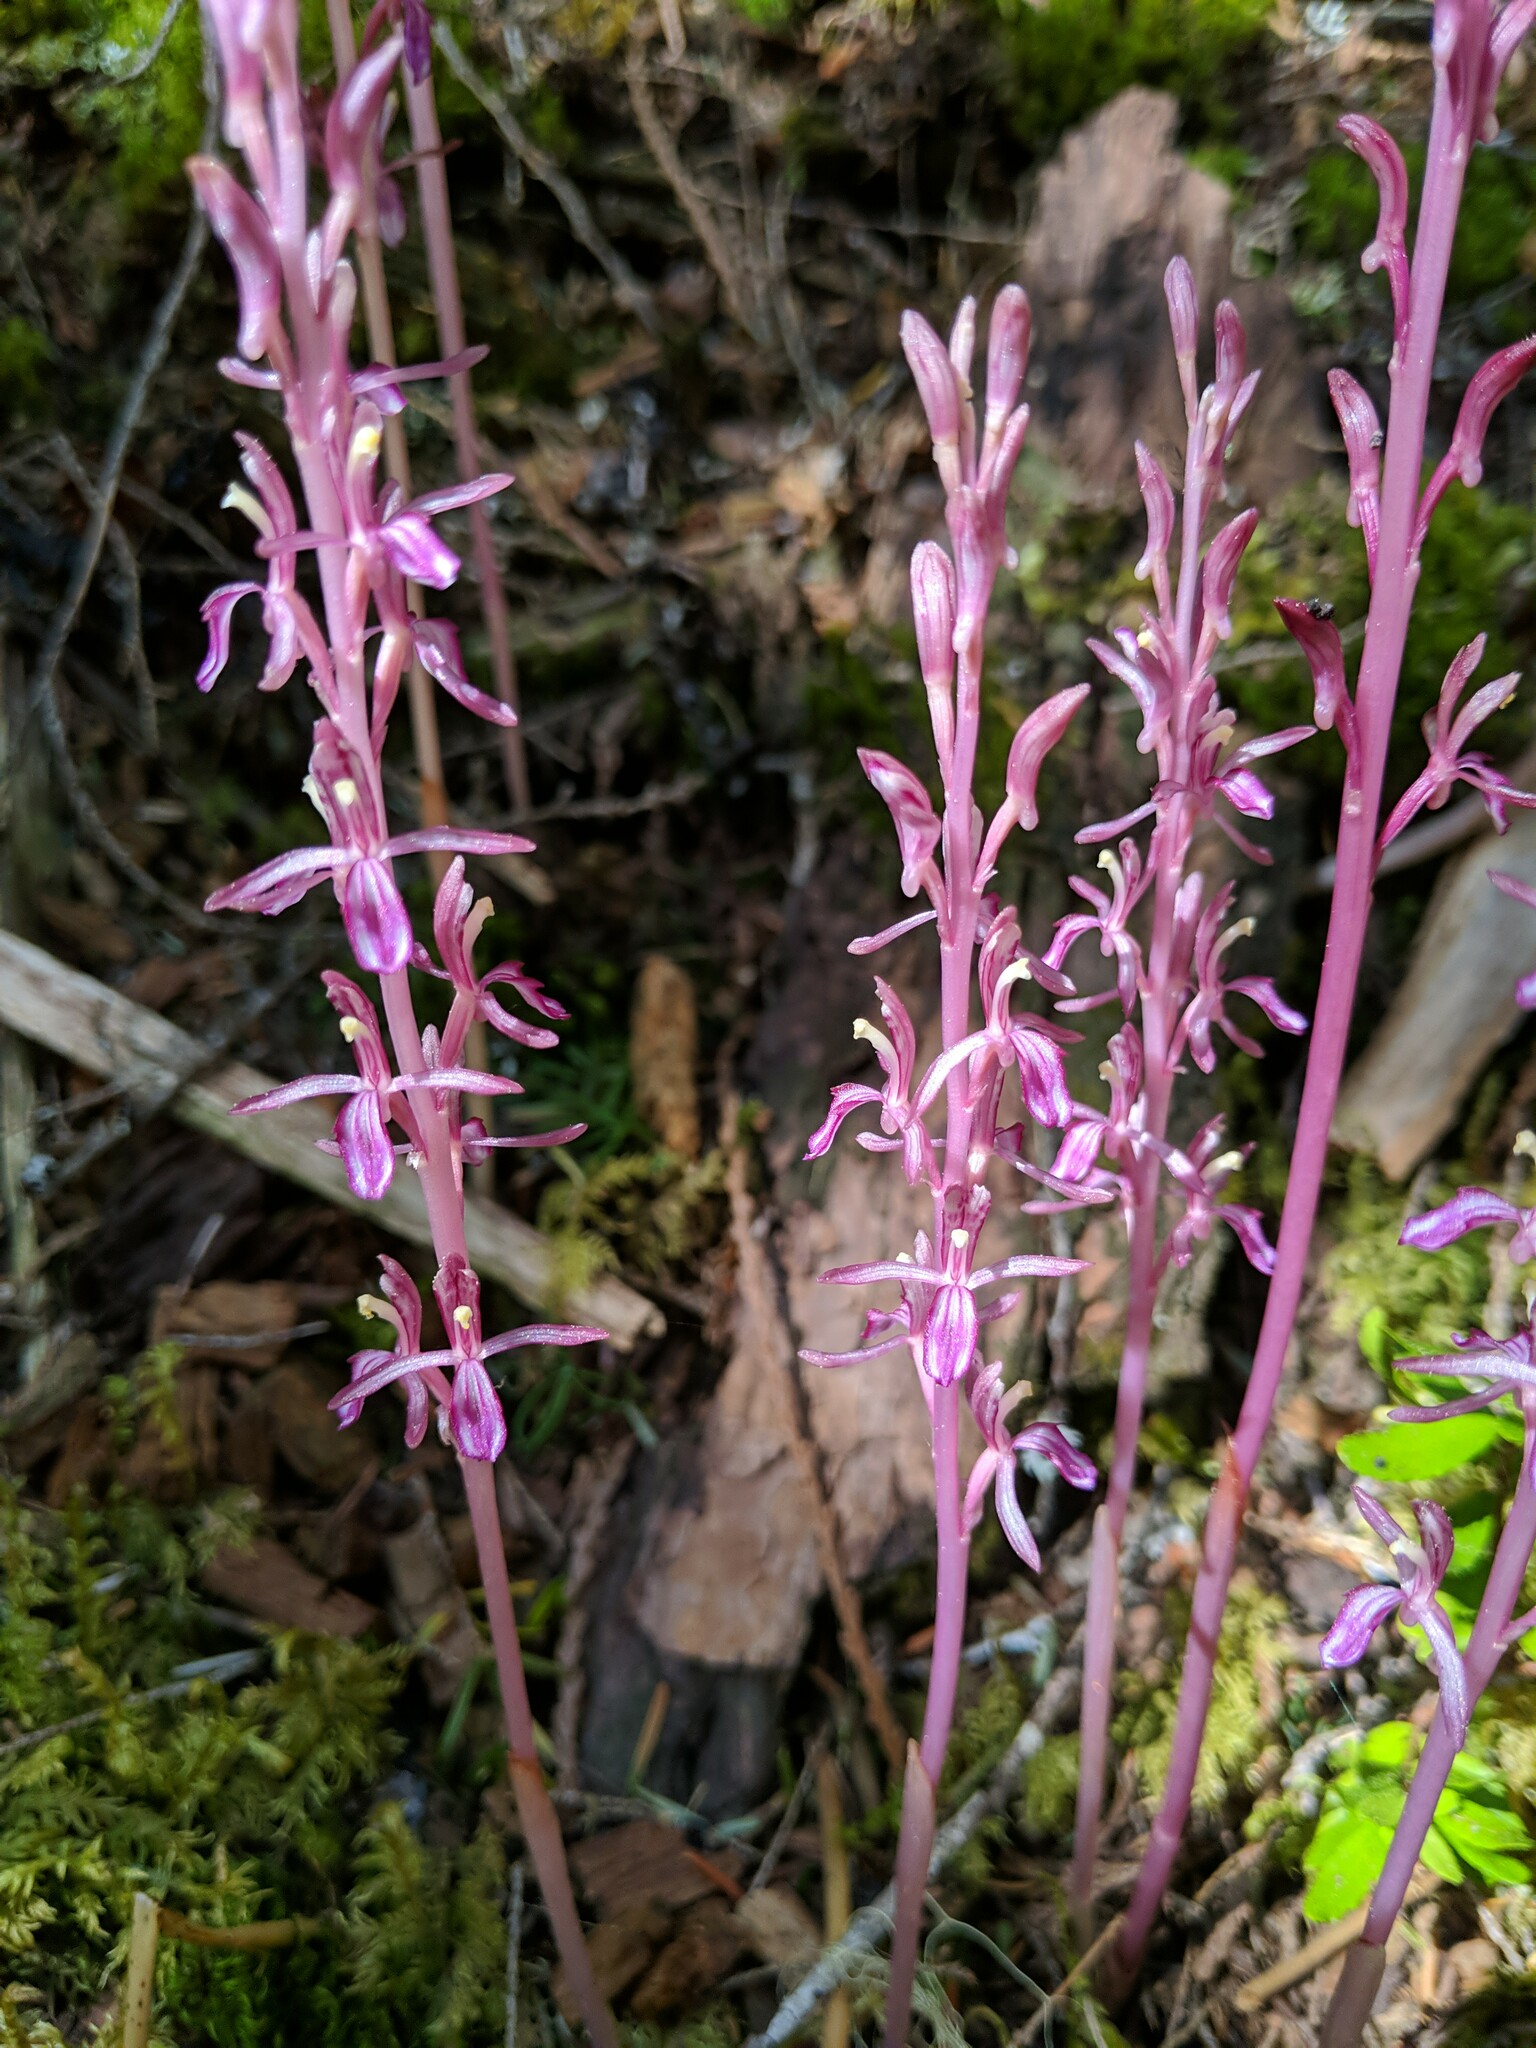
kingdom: Plantae
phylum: Tracheophyta
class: Liliopsida
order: Asparagales
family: Orchidaceae
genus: Corallorhiza
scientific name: Corallorhiza mertensiana
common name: Pacific coralroot
